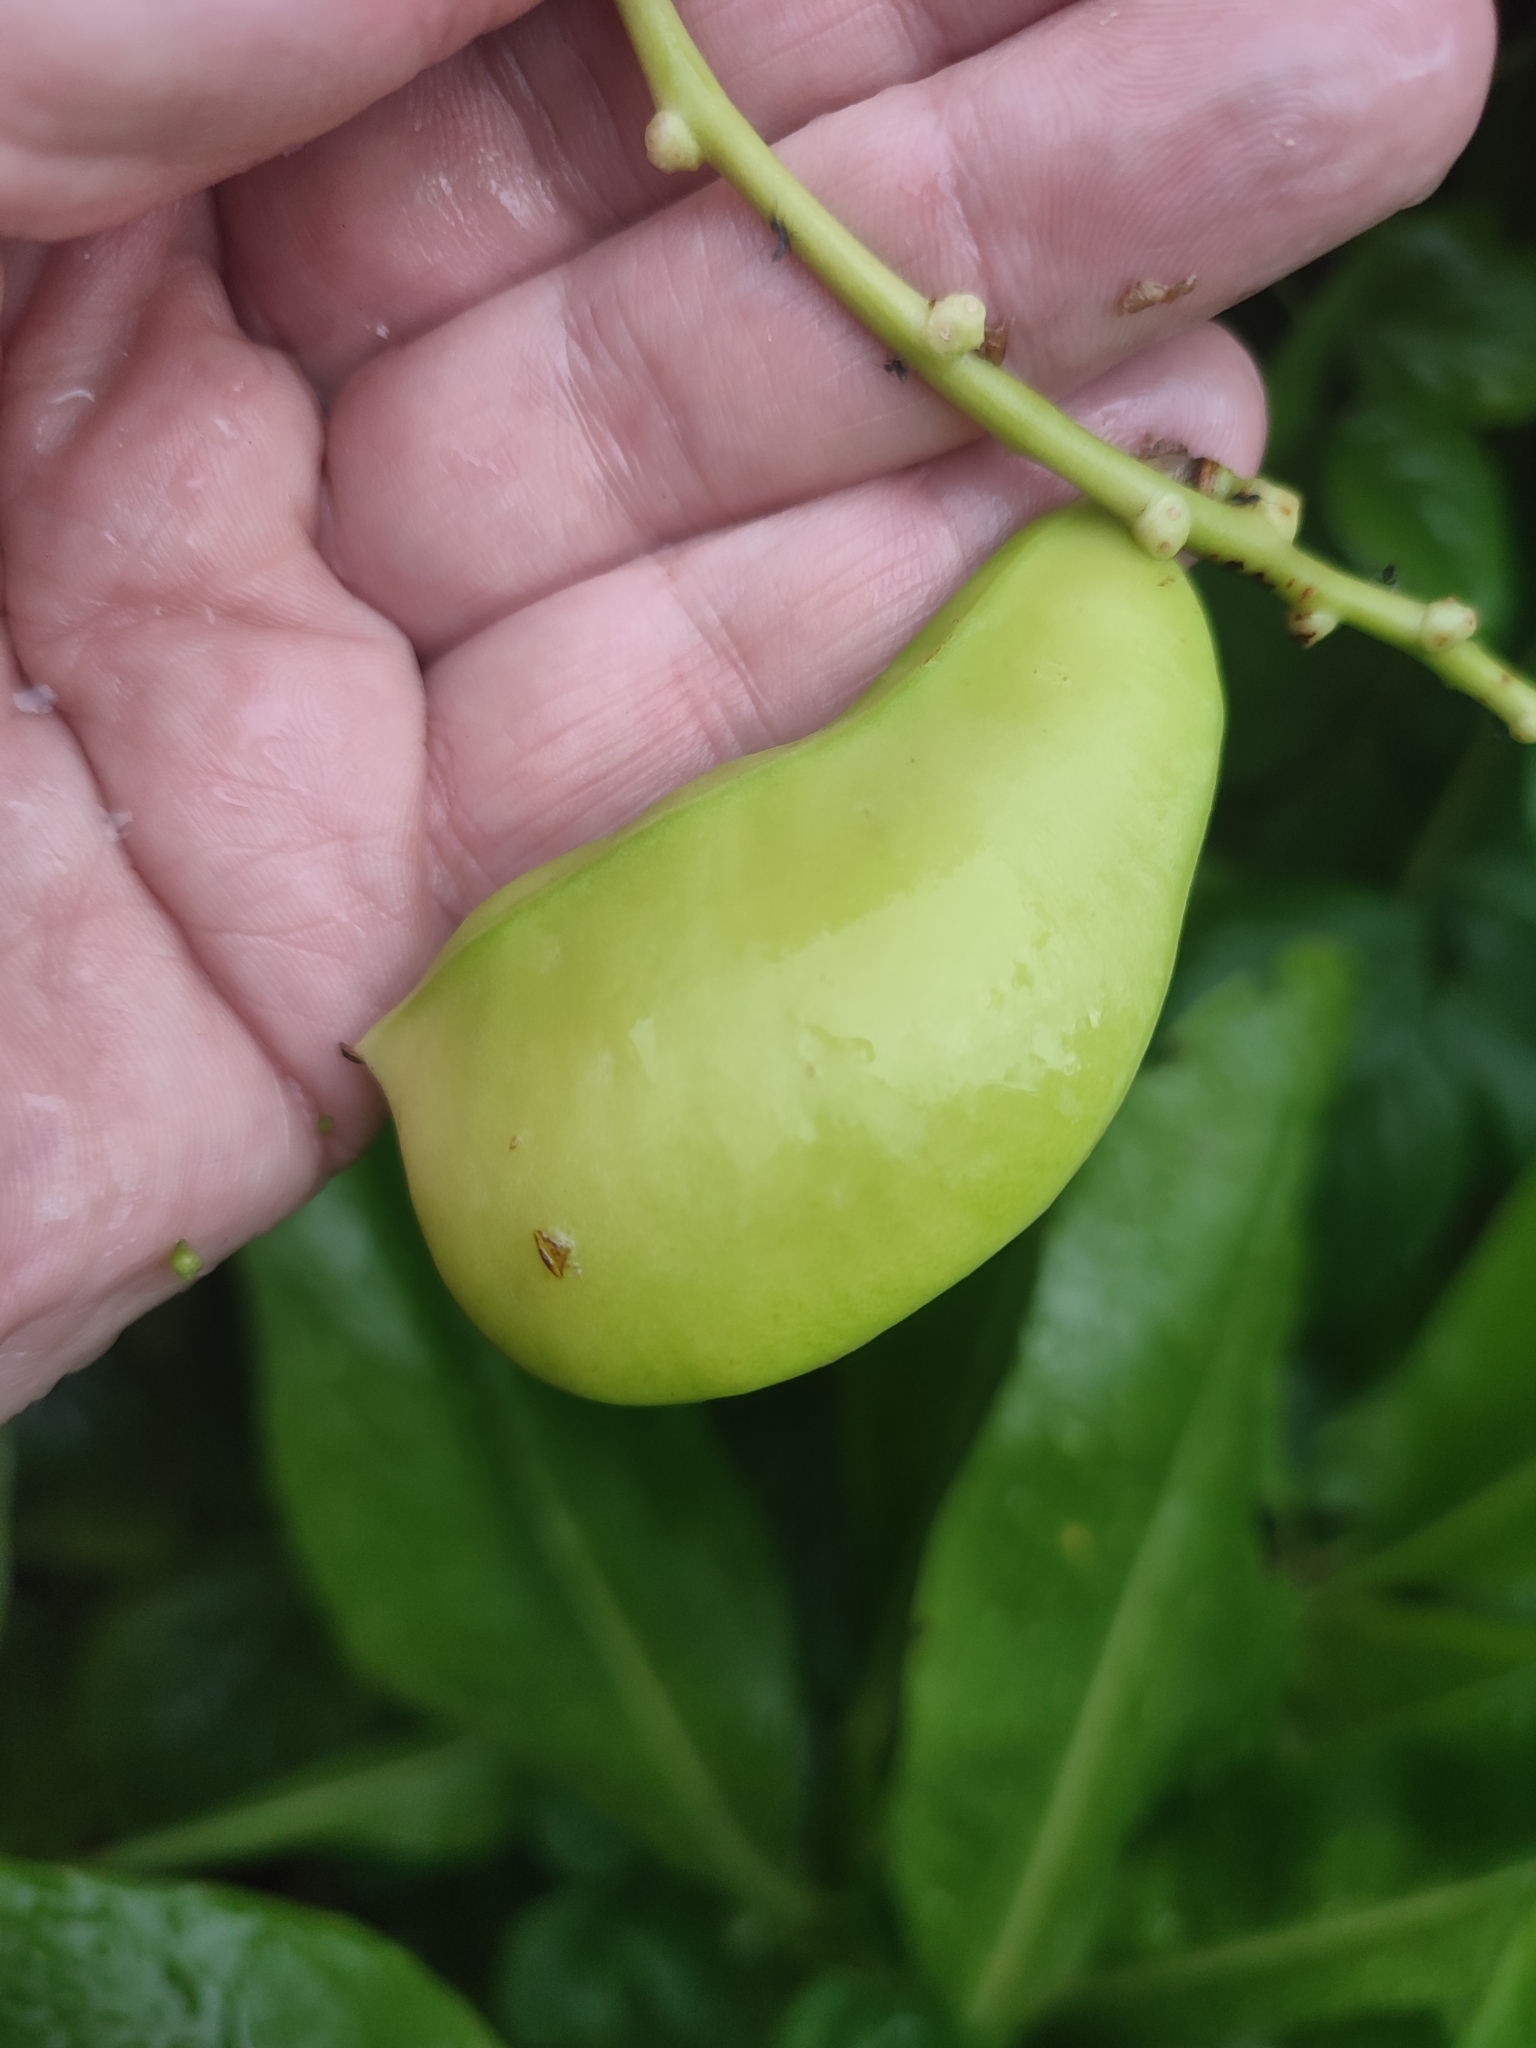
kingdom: Plantae
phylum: Tracheophyta
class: Magnoliopsida
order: Fabales
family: Fabaceae
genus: Canavalia
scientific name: Canavalia cathartica
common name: Maunaloa
